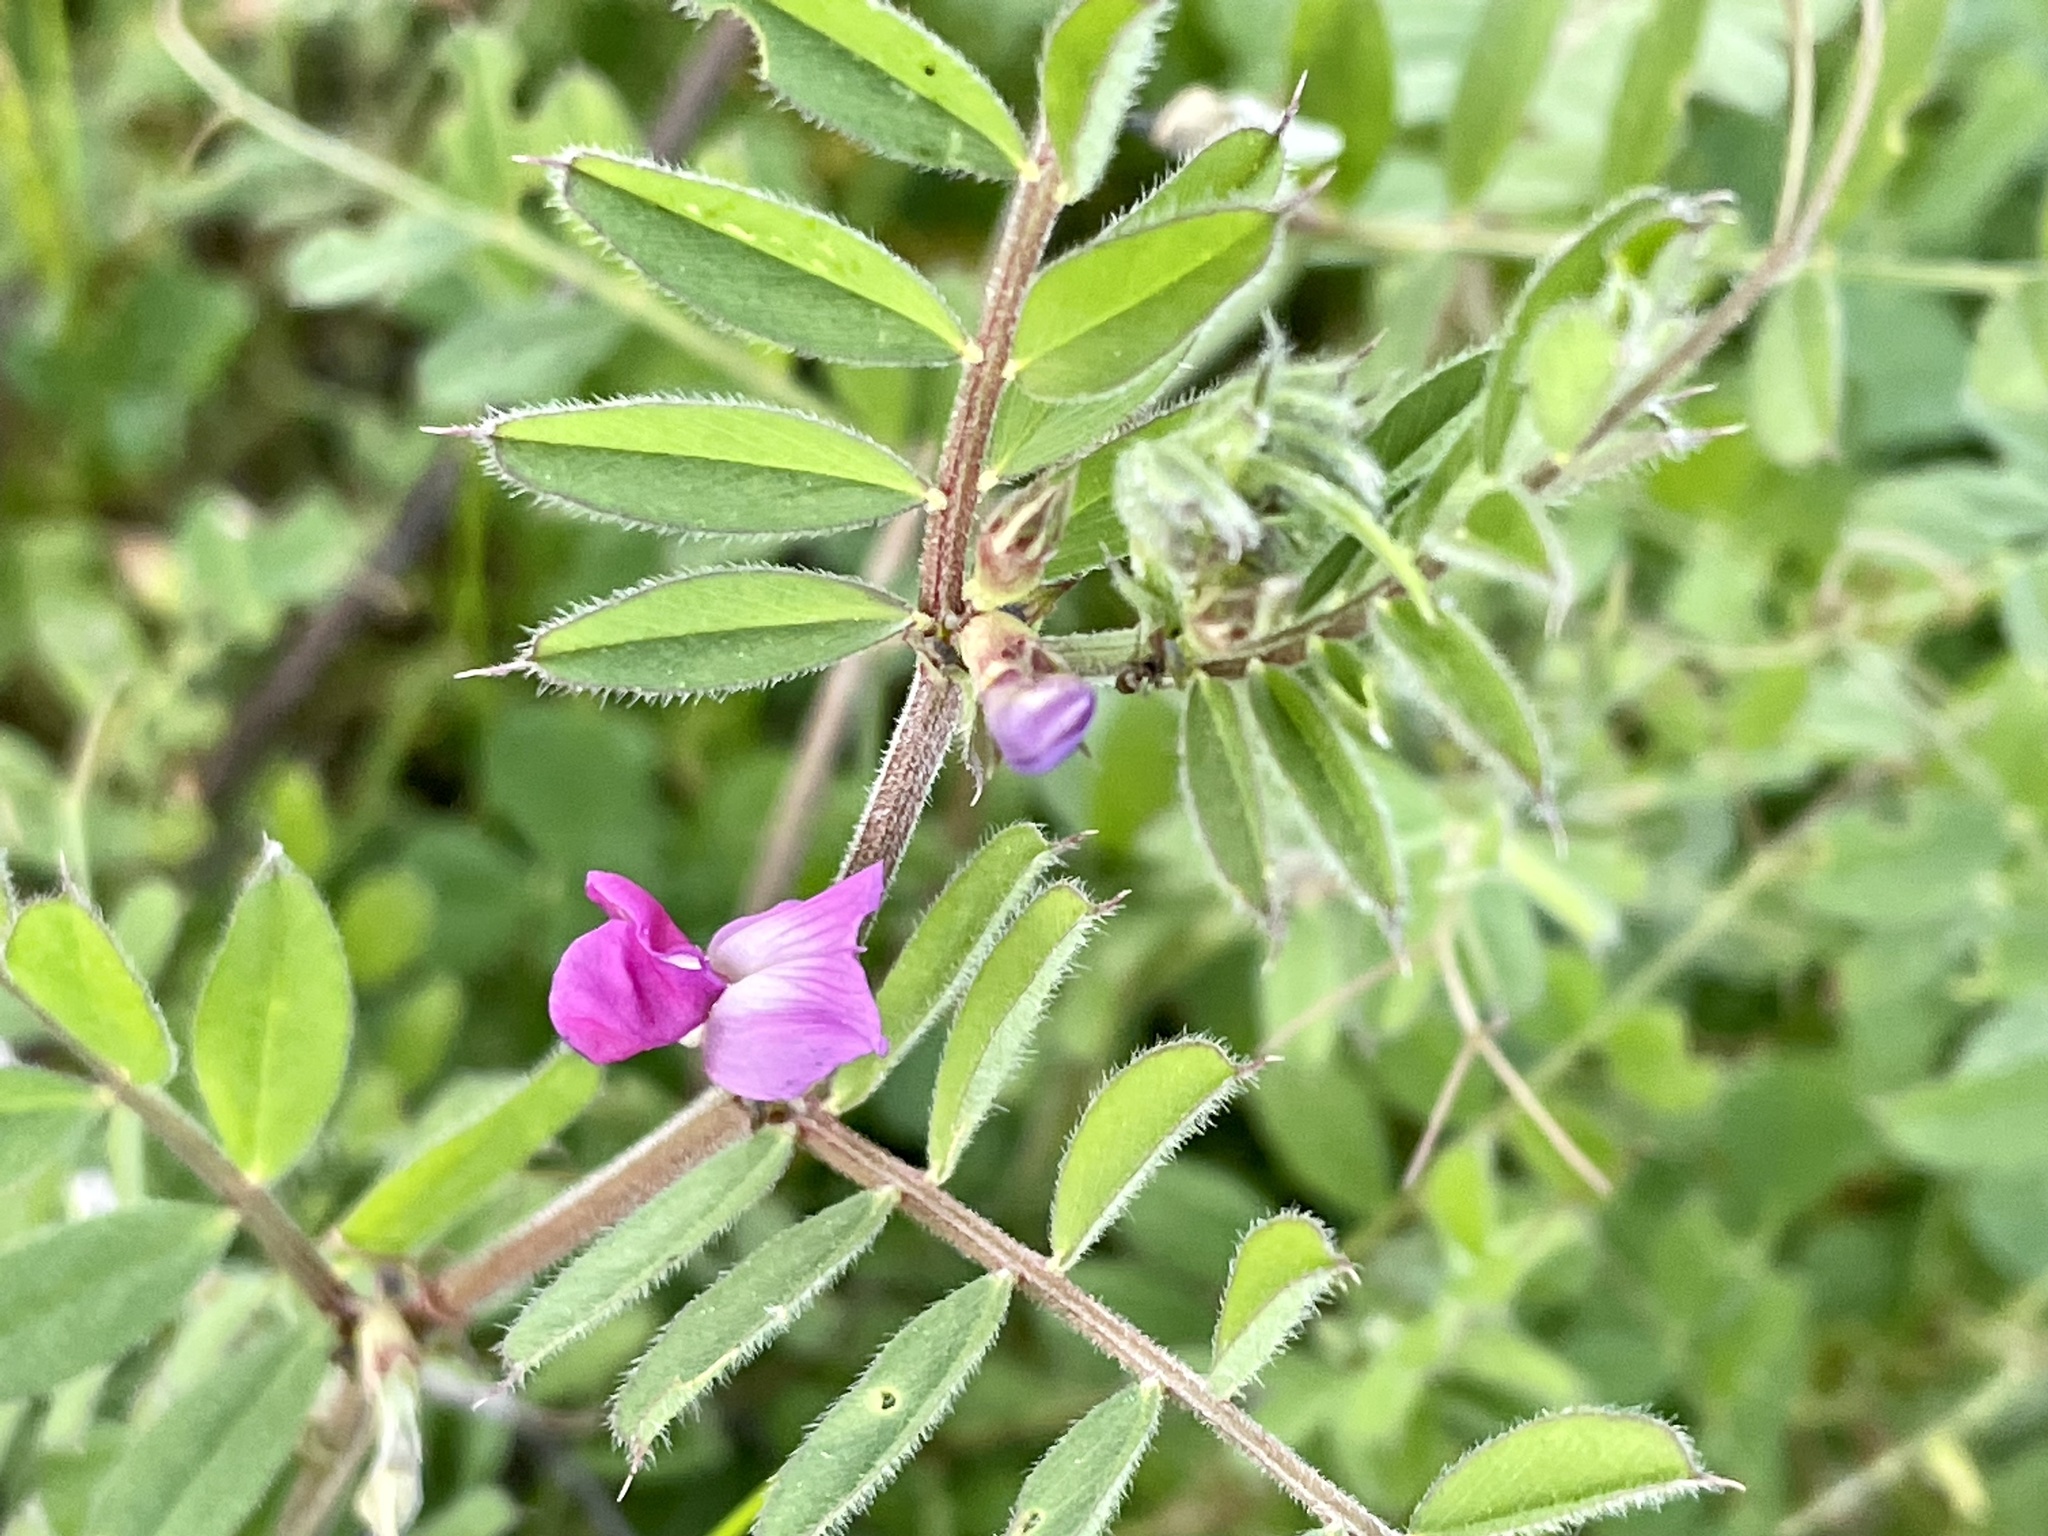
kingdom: Plantae
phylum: Tracheophyta
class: Magnoliopsida
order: Fabales
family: Fabaceae
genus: Vicia
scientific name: Vicia sativa
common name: Garden vetch
